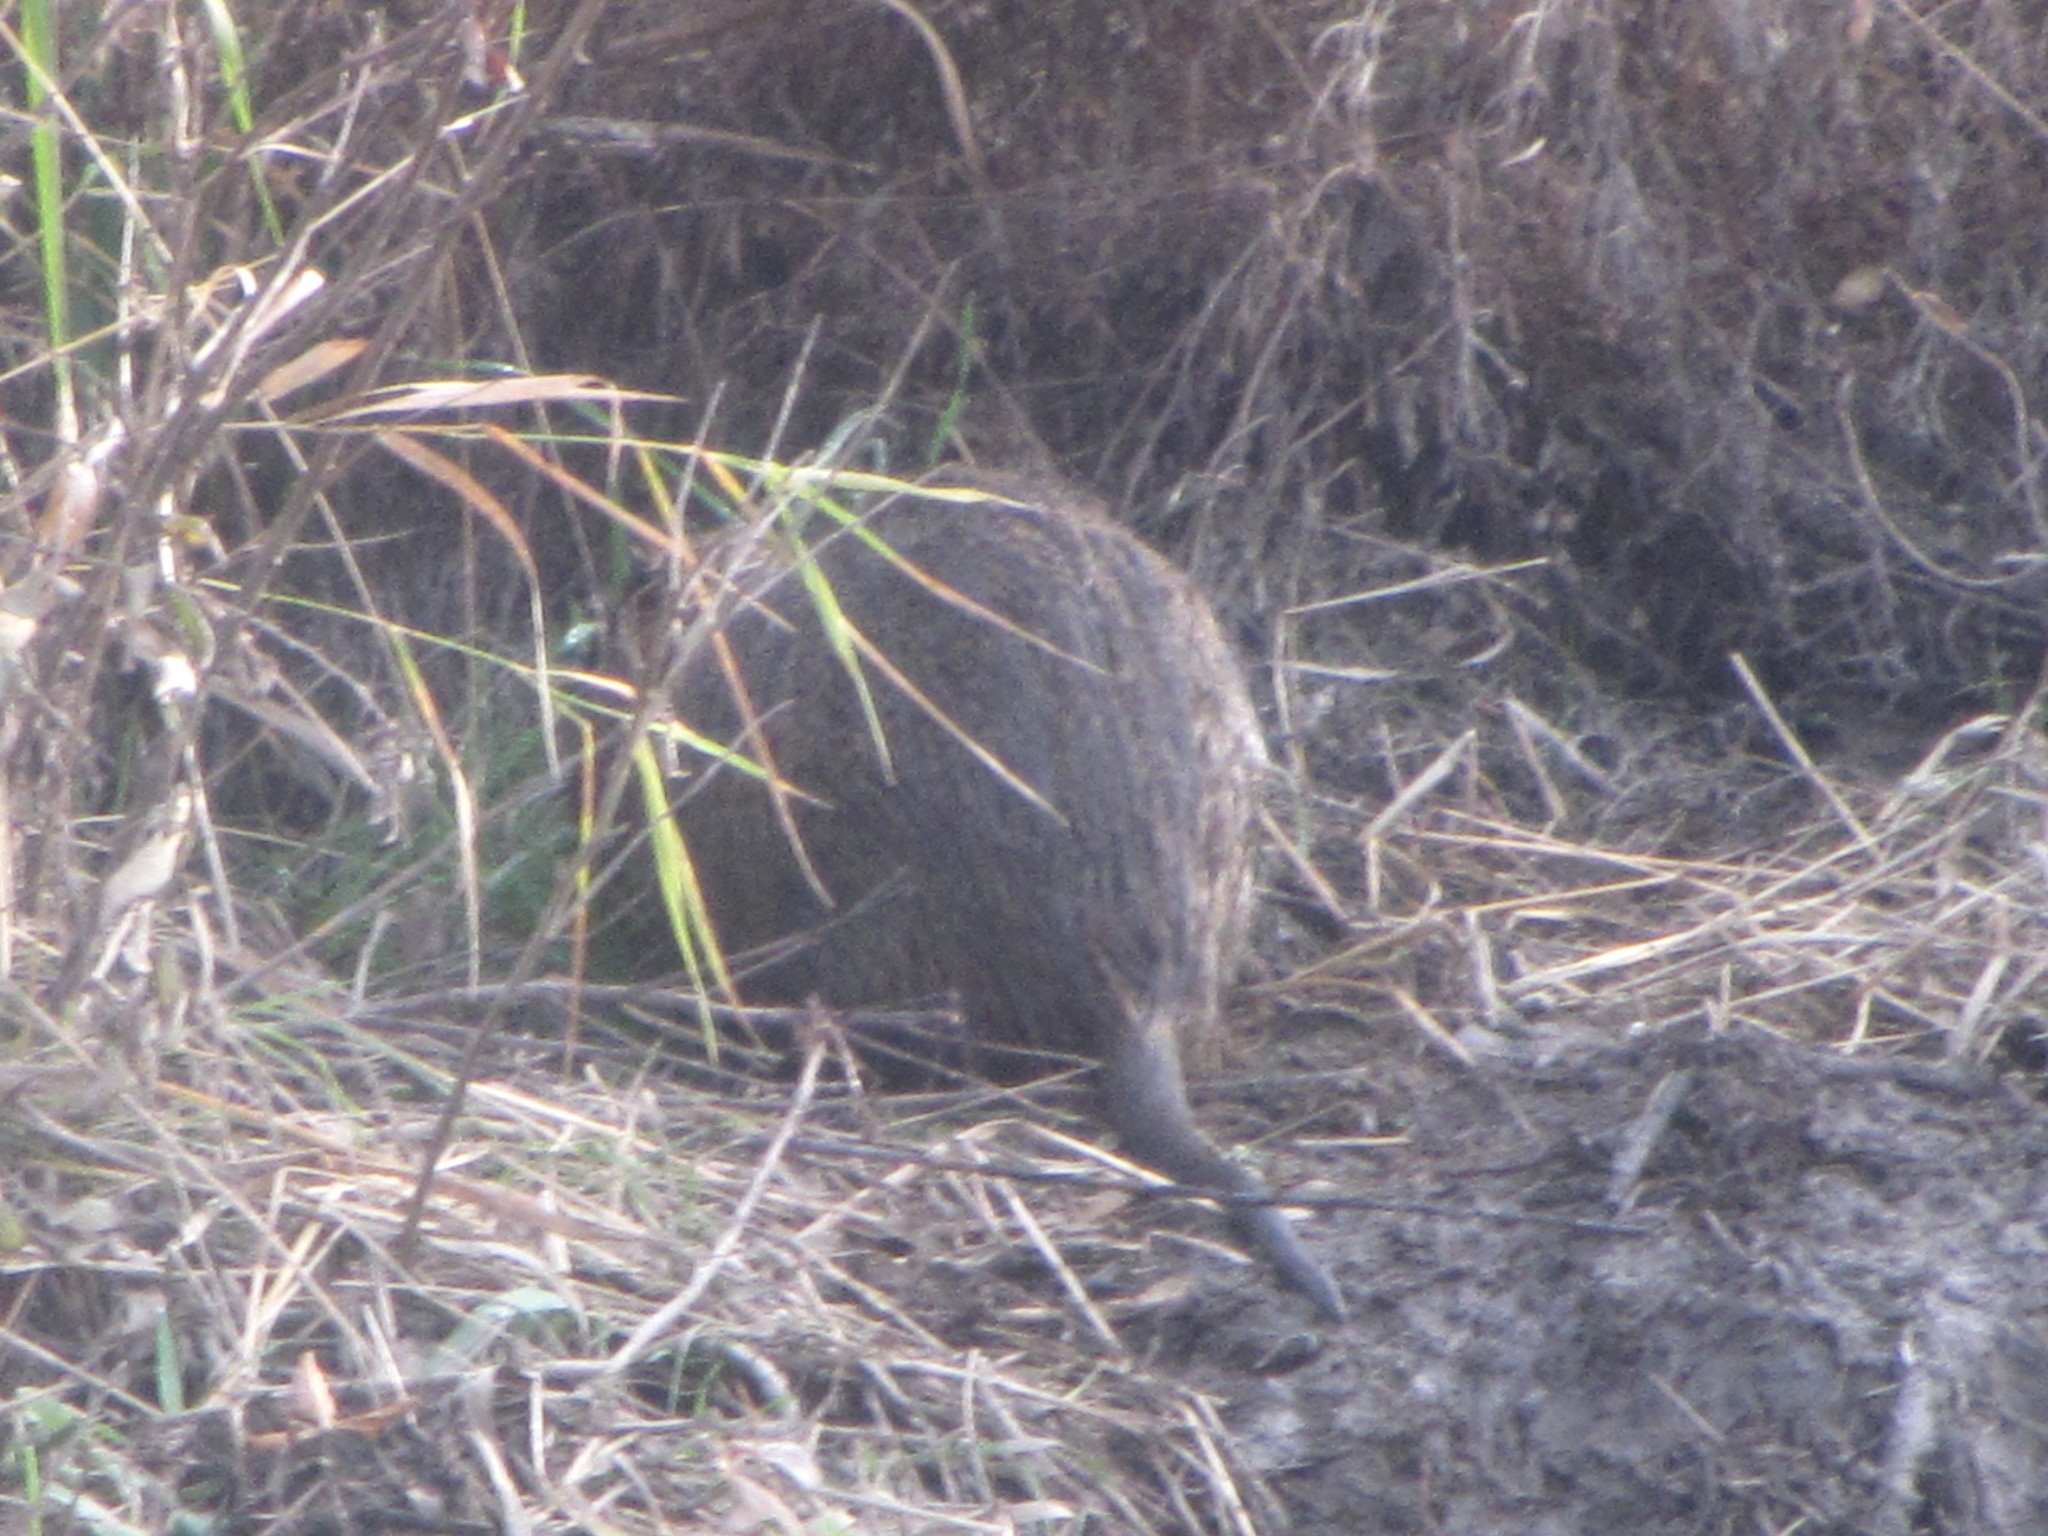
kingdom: Animalia
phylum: Chordata
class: Mammalia
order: Rodentia
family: Myocastoridae
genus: Myocastor
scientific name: Myocastor coypus
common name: Coypu
